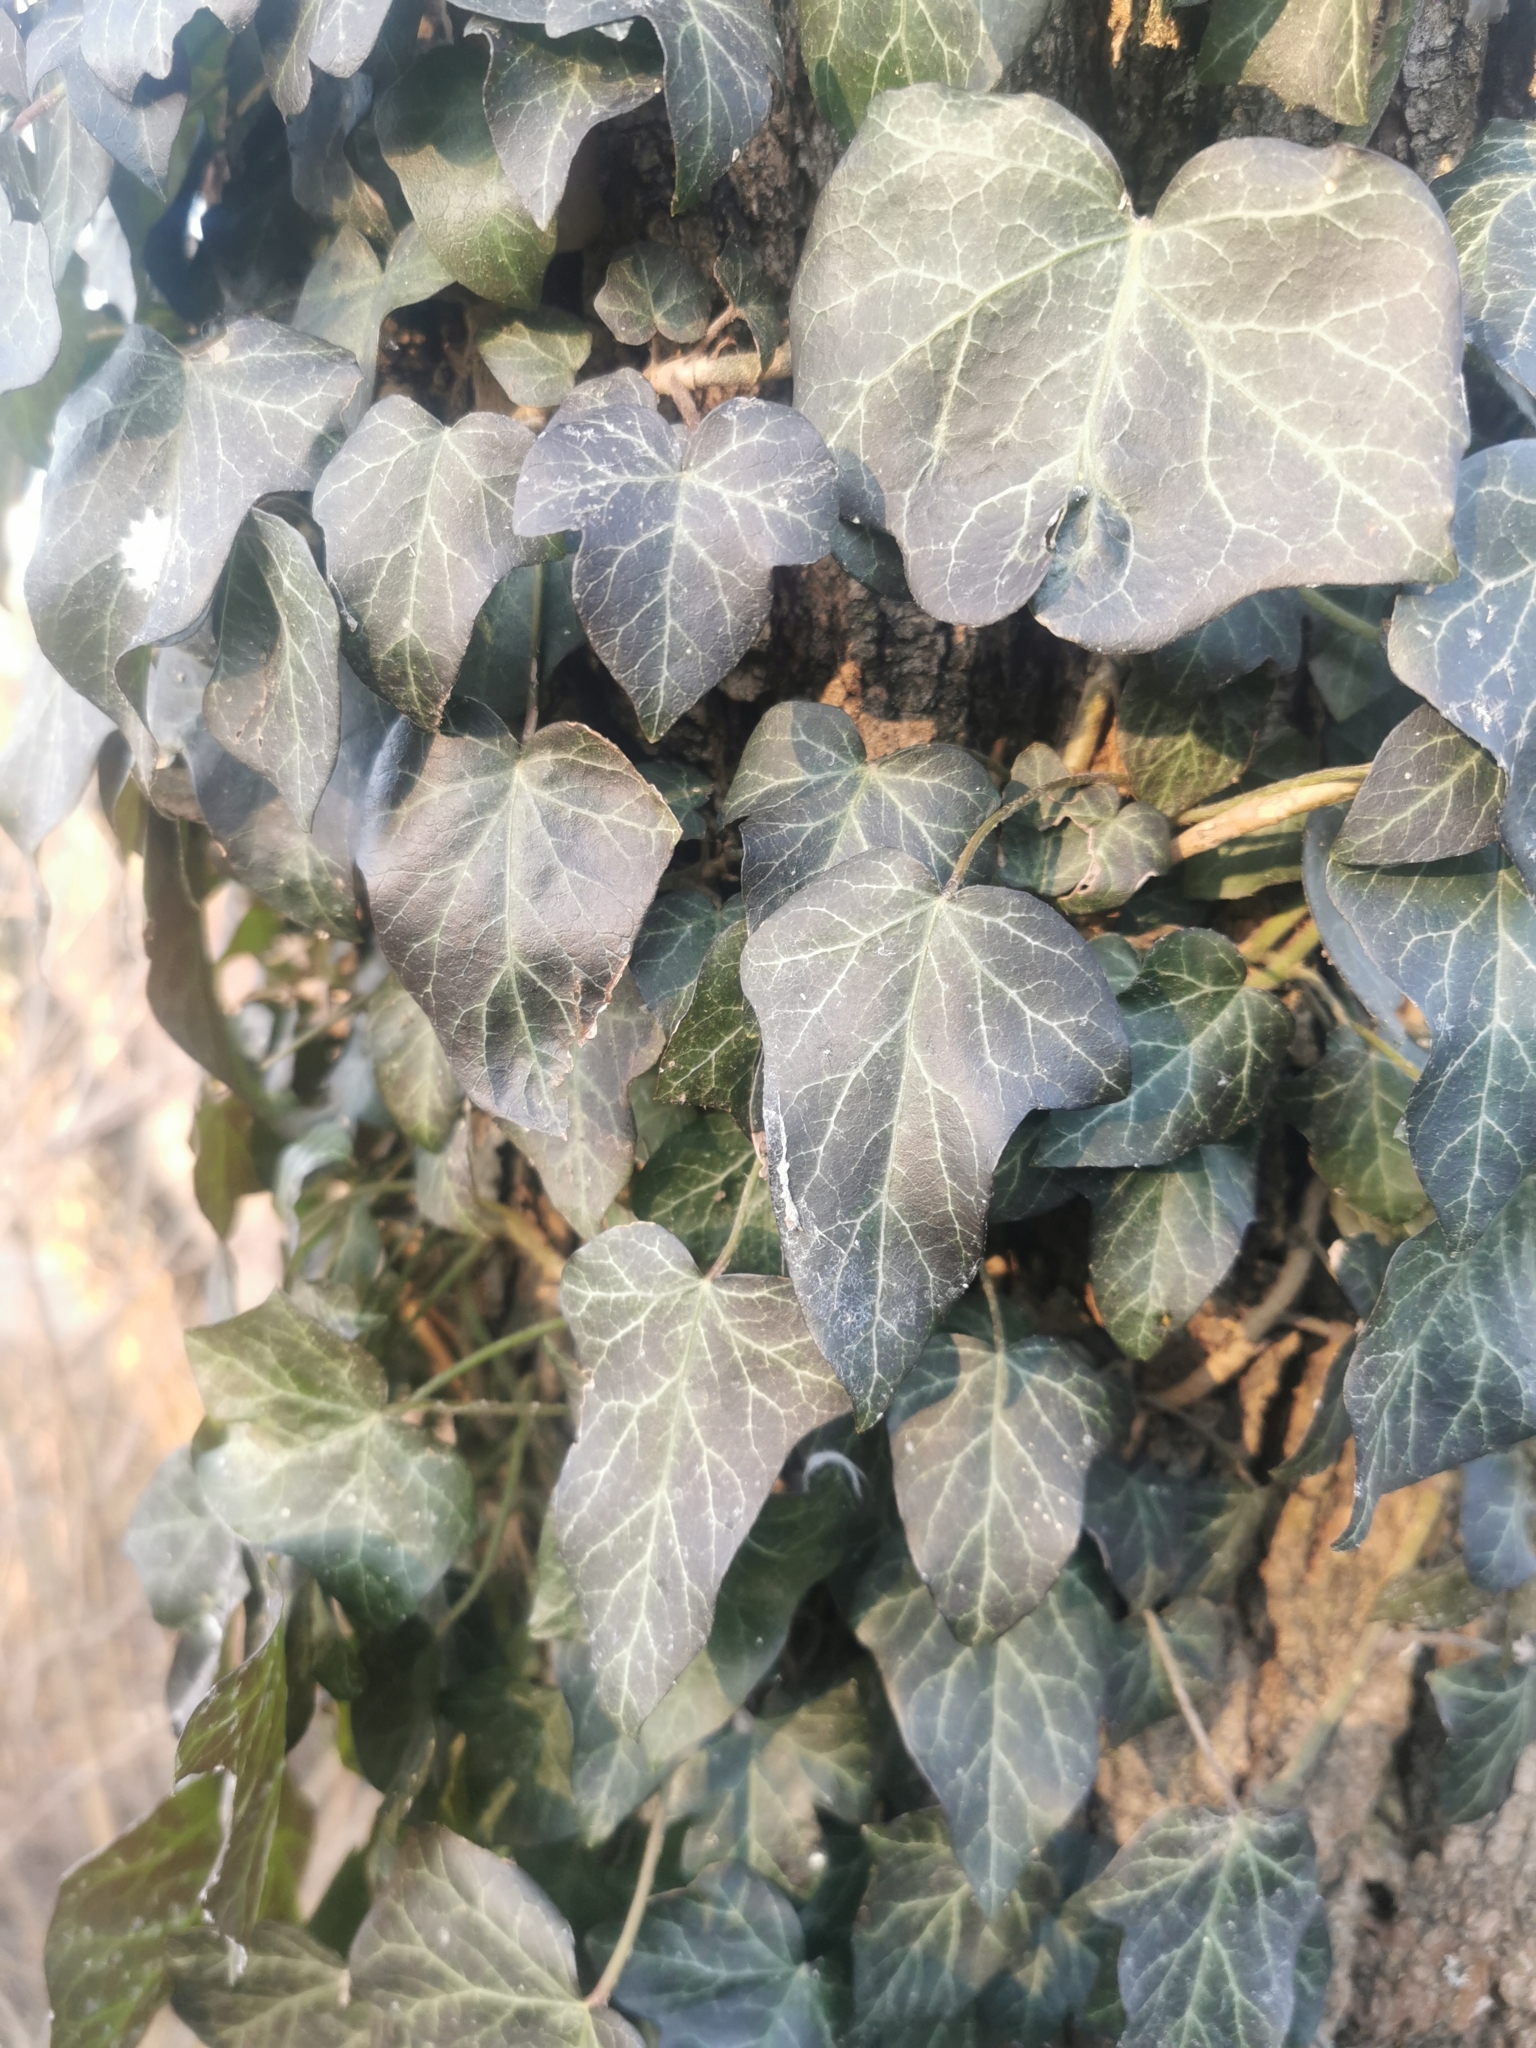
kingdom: Plantae
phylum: Tracheophyta
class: Magnoliopsida
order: Apiales
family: Araliaceae
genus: Hedera
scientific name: Hedera helix
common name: Ivy
